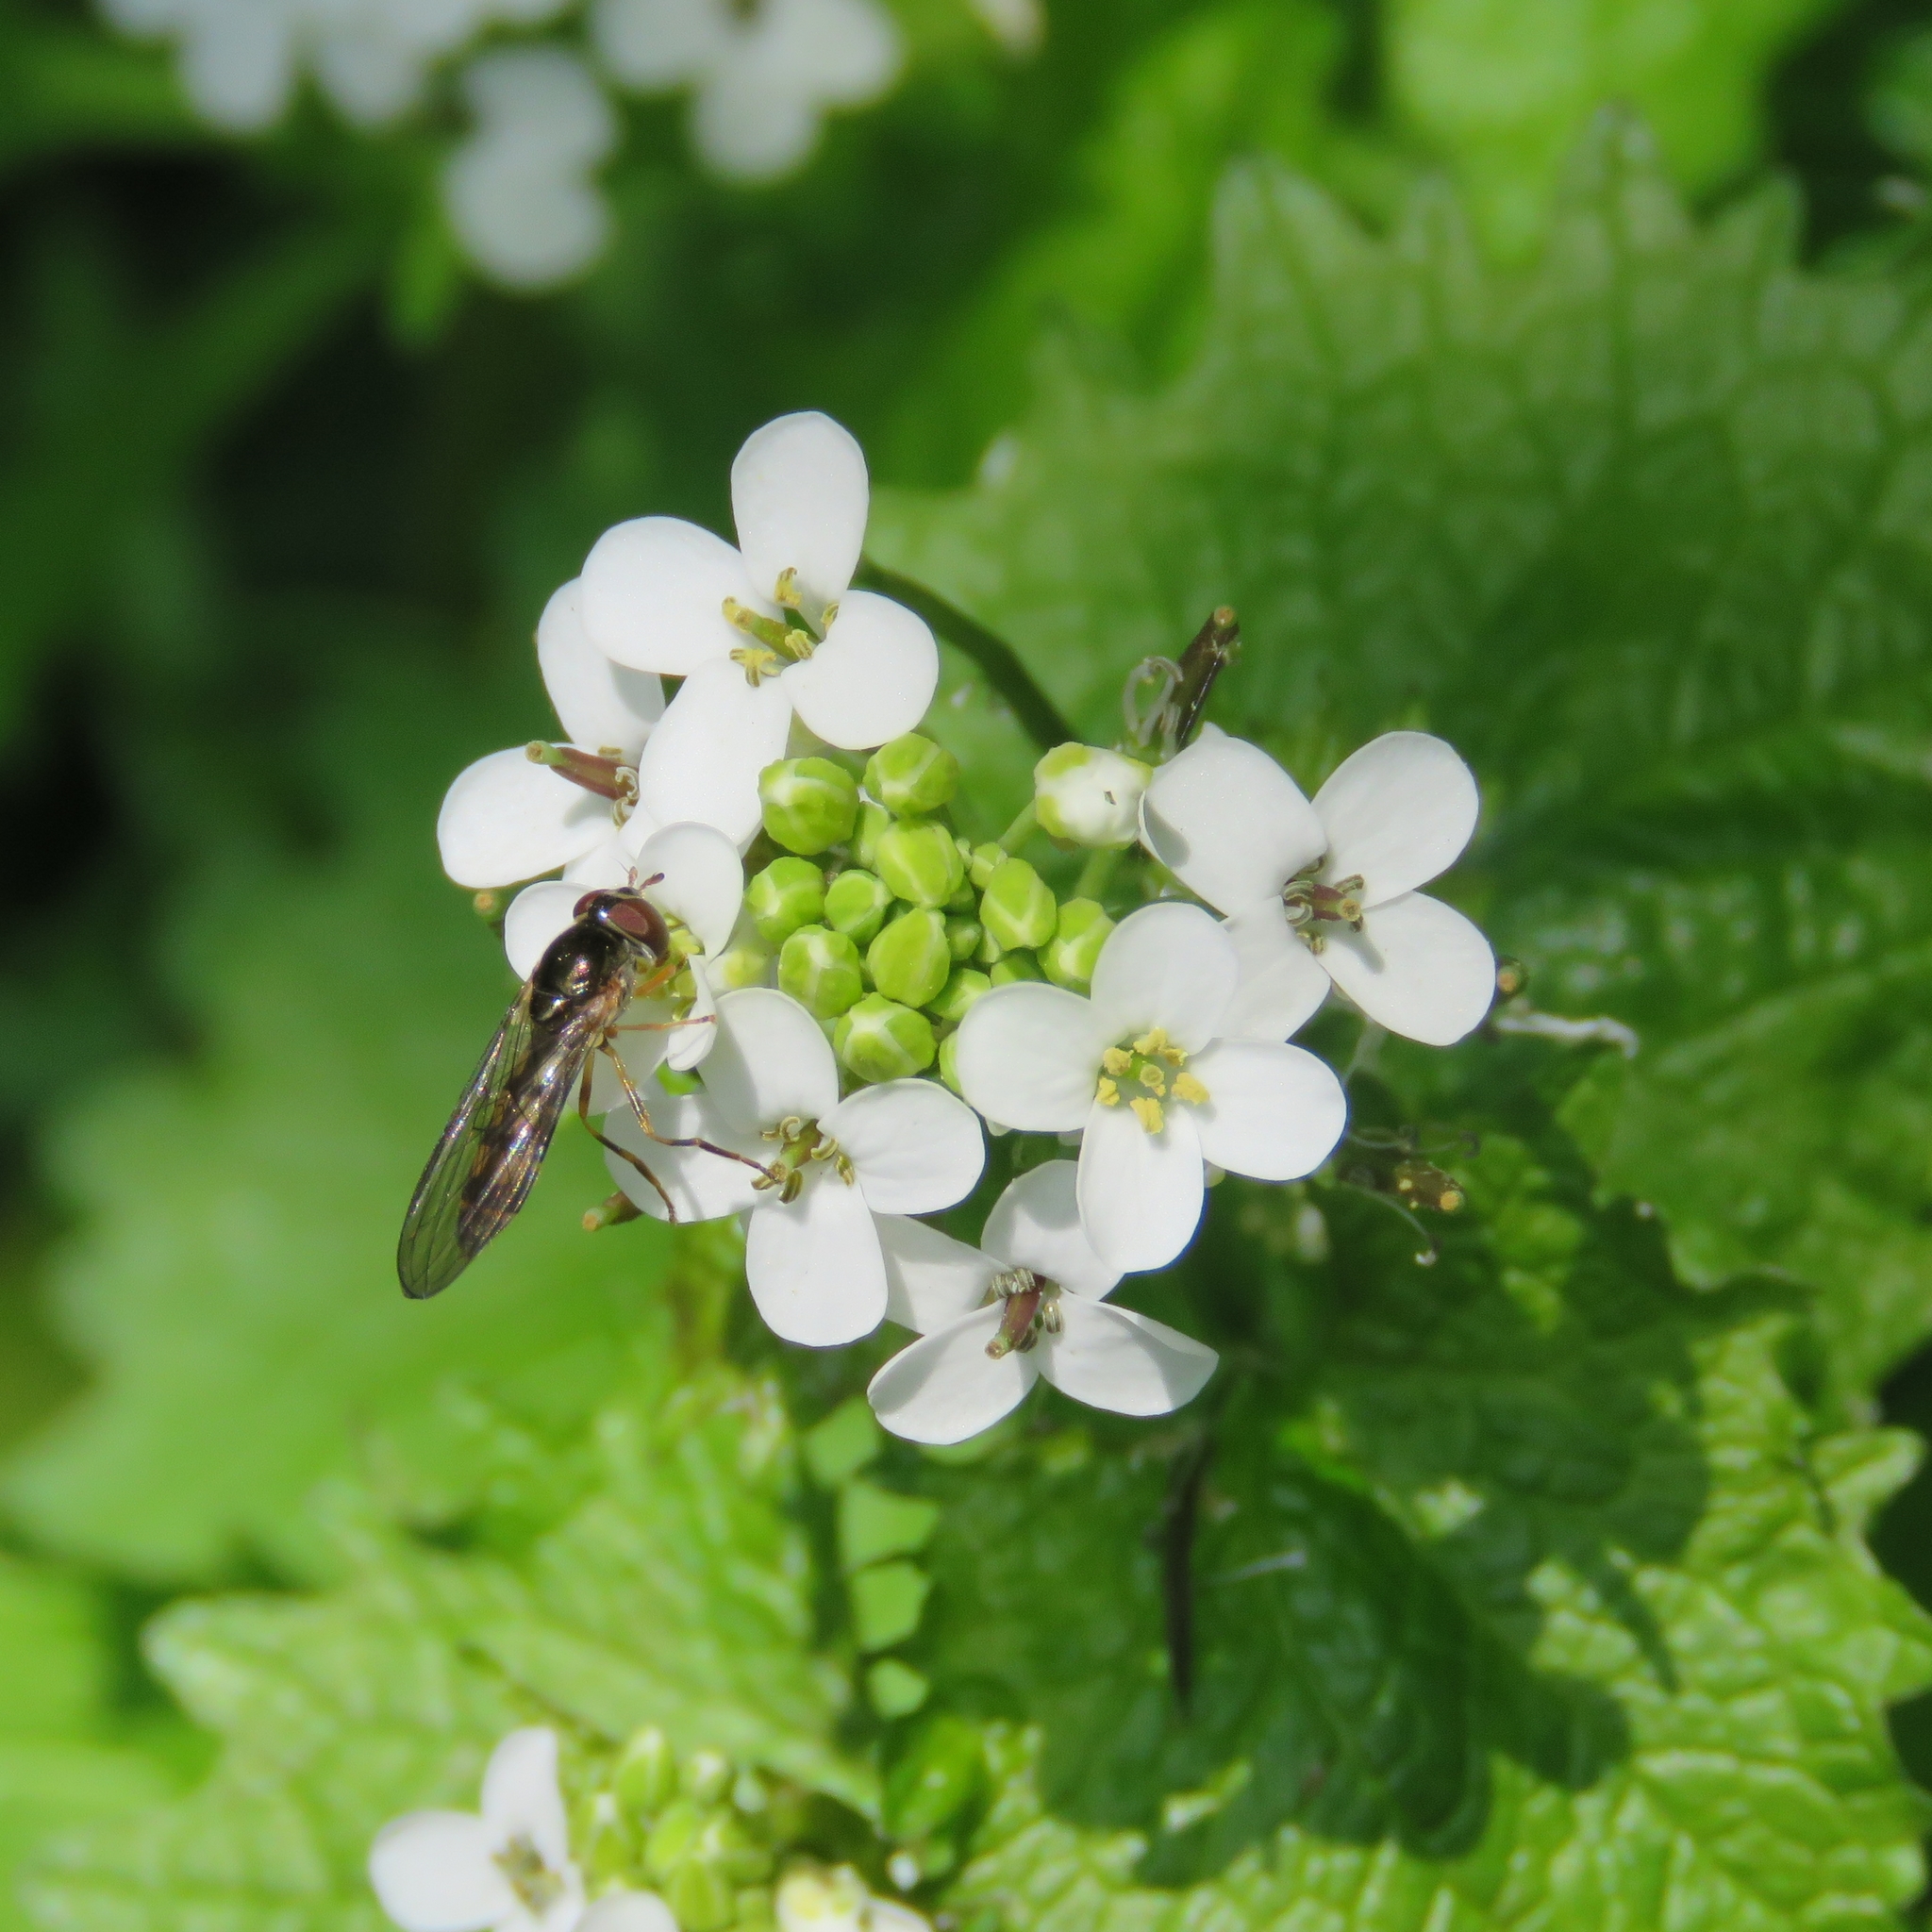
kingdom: Plantae
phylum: Tracheophyta
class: Magnoliopsida
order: Brassicales
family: Brassicaceae
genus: Alliaria
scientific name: Alliaria petiolata
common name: Garlic mustard
